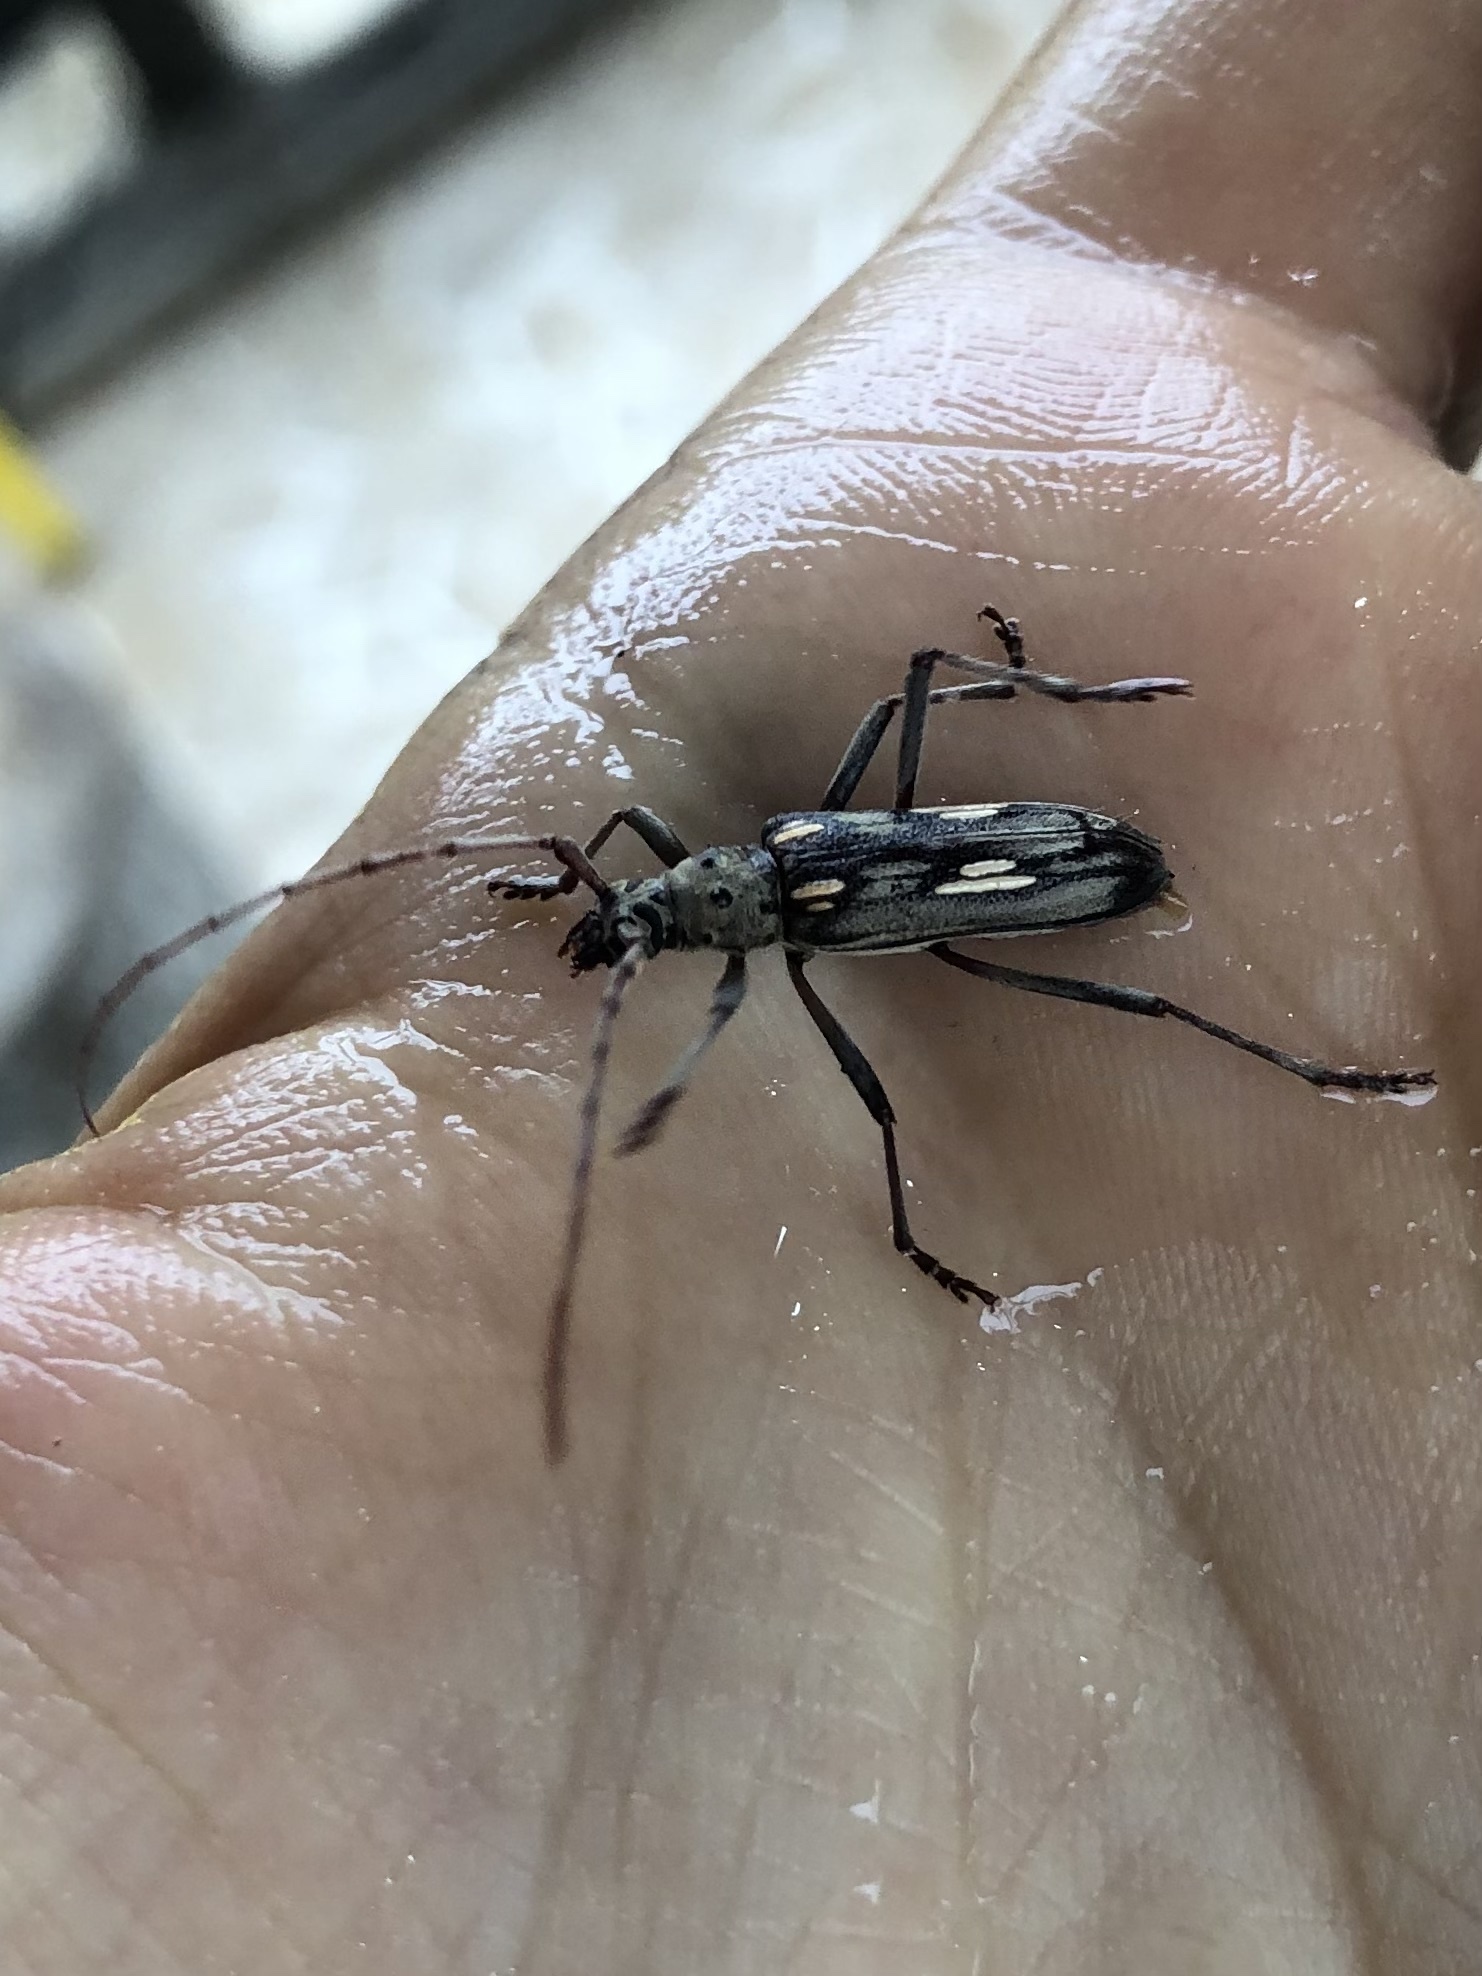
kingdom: Animalia
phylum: Arthropoda
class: Insecta
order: Coleoptera
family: Cerambycidae
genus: Eburia
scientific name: Eburia lanigera
